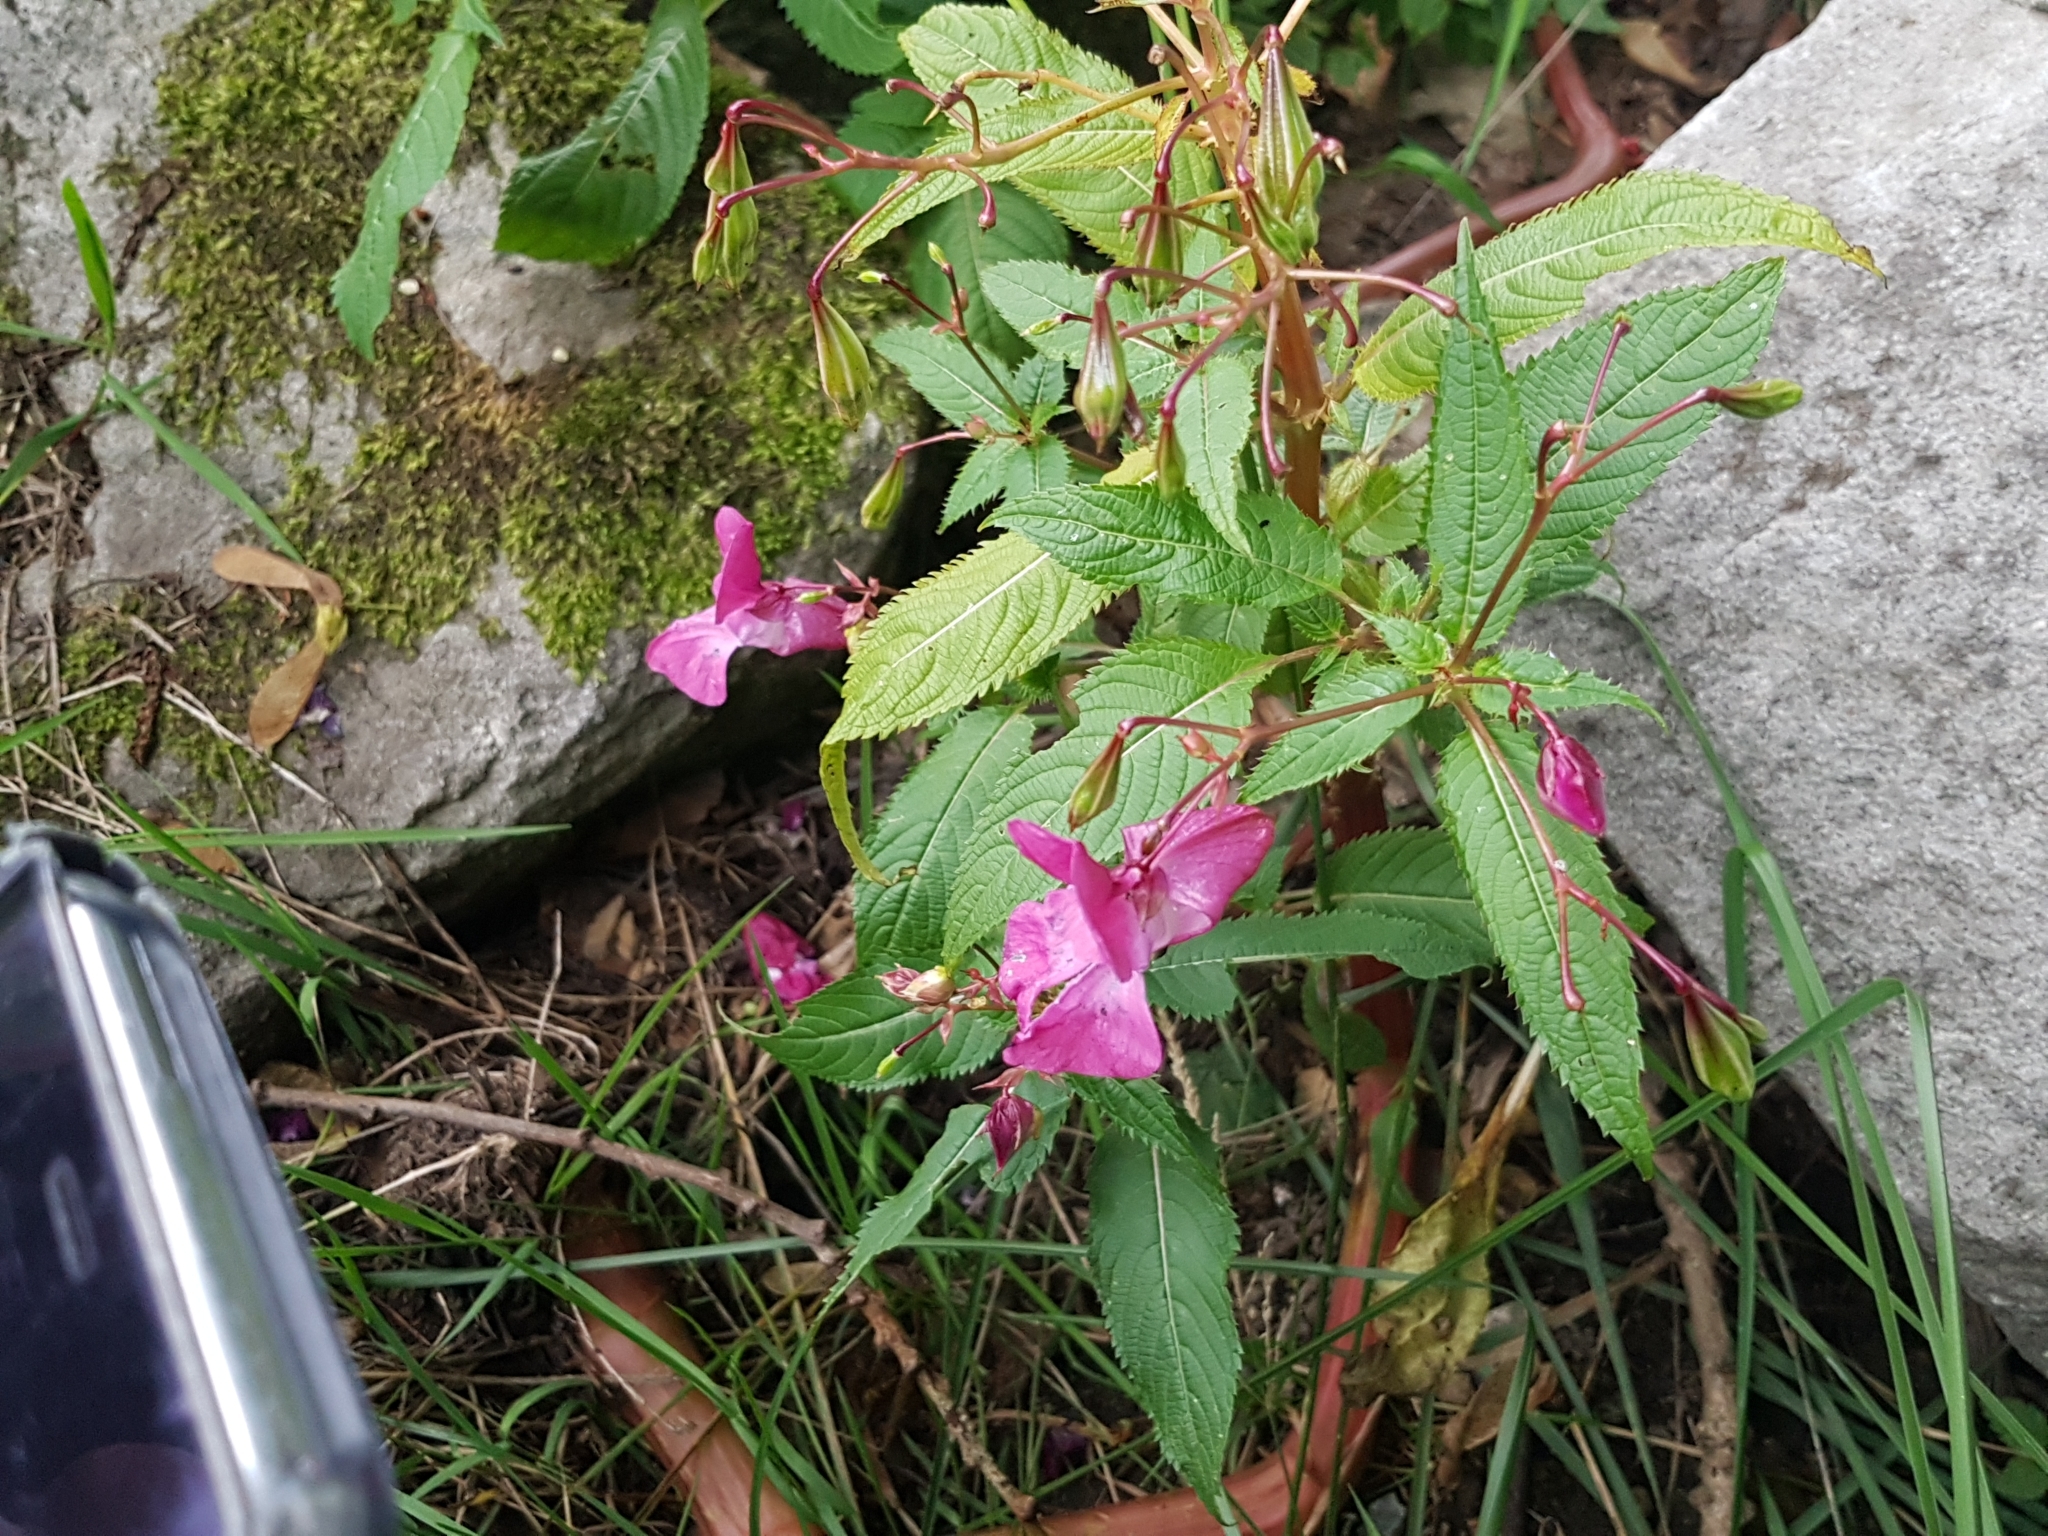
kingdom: Plantae
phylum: Tracheophyta
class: Magnoliopsida
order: Ericales
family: Balsaminaceae
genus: Impatiens
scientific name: Impatiens glandulifera
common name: Himalayan balsam
